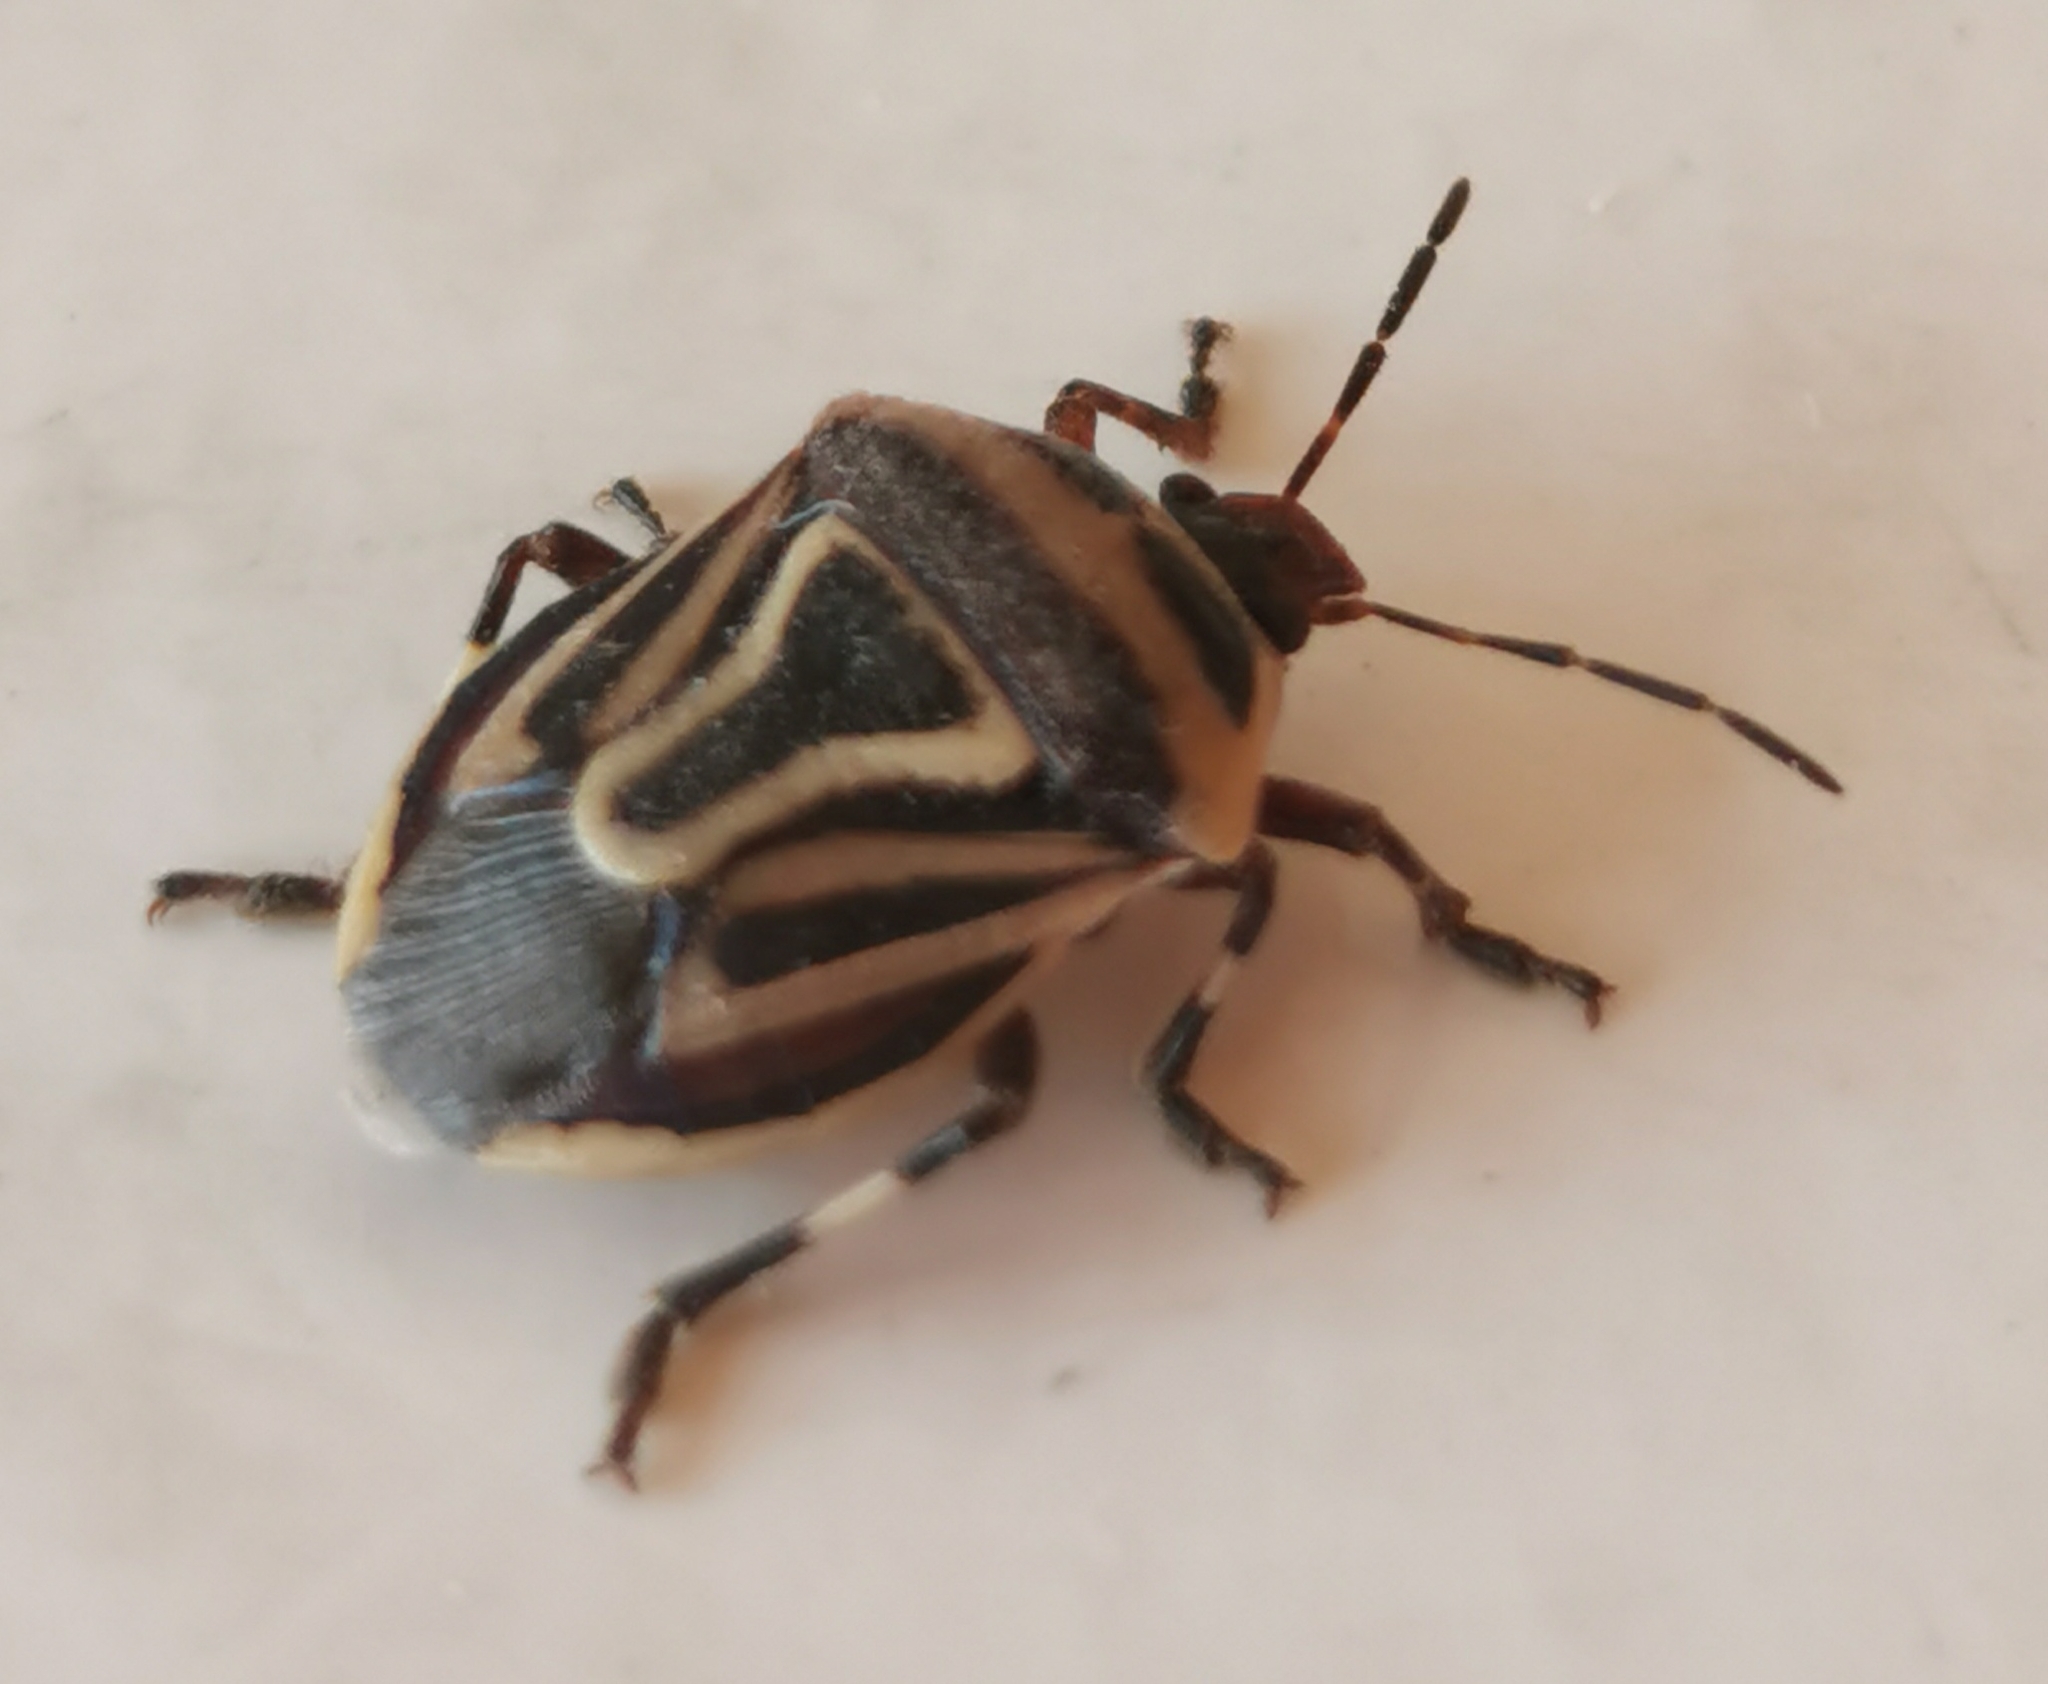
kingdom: Animalia
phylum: Arthropoda
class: Insecta
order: Hemiptera
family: Pentatomidae
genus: Perillus
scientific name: Perillus bioculatus
